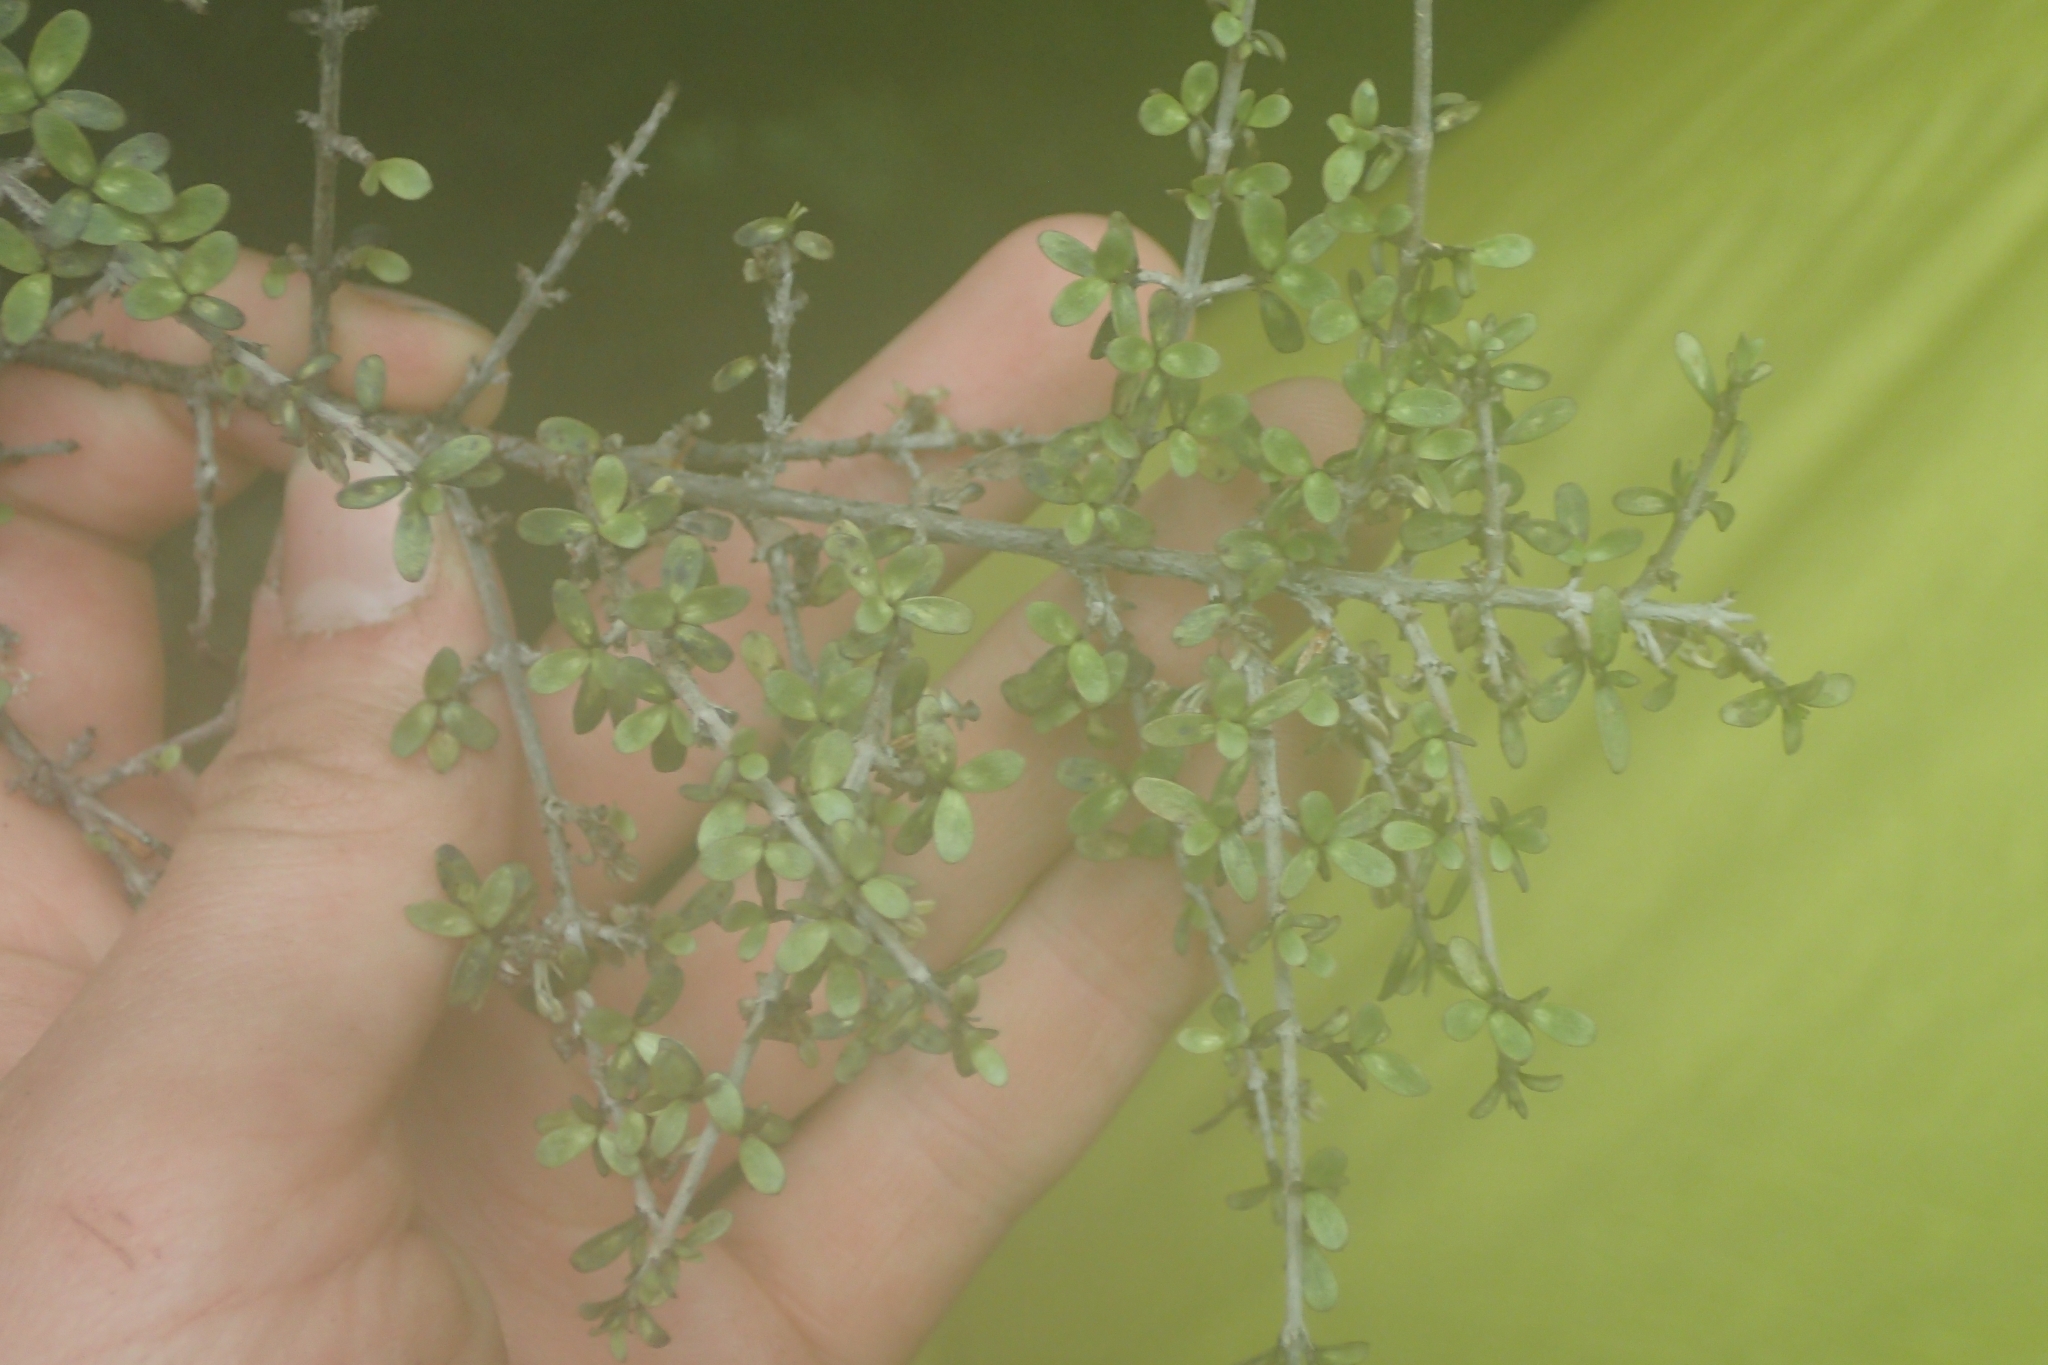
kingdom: Plantae
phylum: Tracheophyta
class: Magnoliopsida
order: Gentianales
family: Rubiaceae
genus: Coprosma
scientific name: Coprosma dumosa
